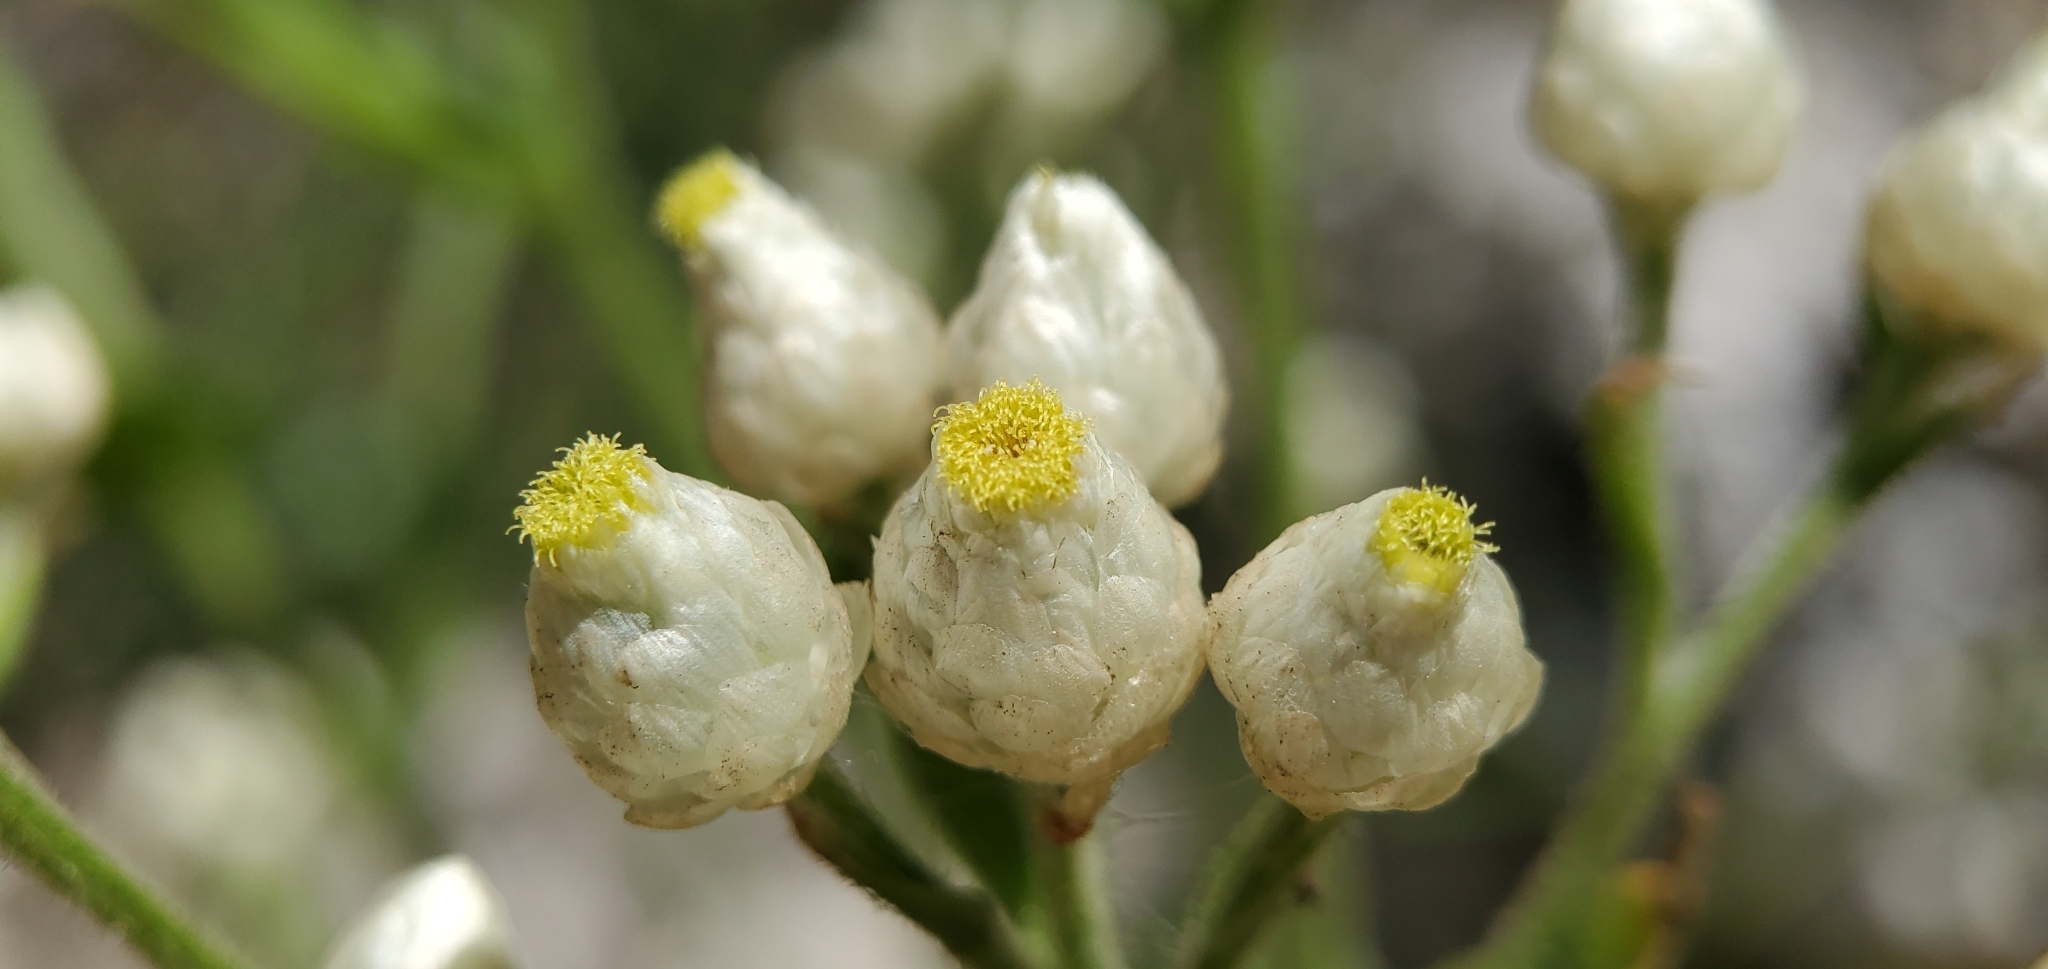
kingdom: Plantae
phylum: Tracheophyta
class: Magnoliopsida
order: Asterales
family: Asteraceae
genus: Pseudognaphalium
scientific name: Pseudognaphalium californicum
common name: California rabbit-tobacco
